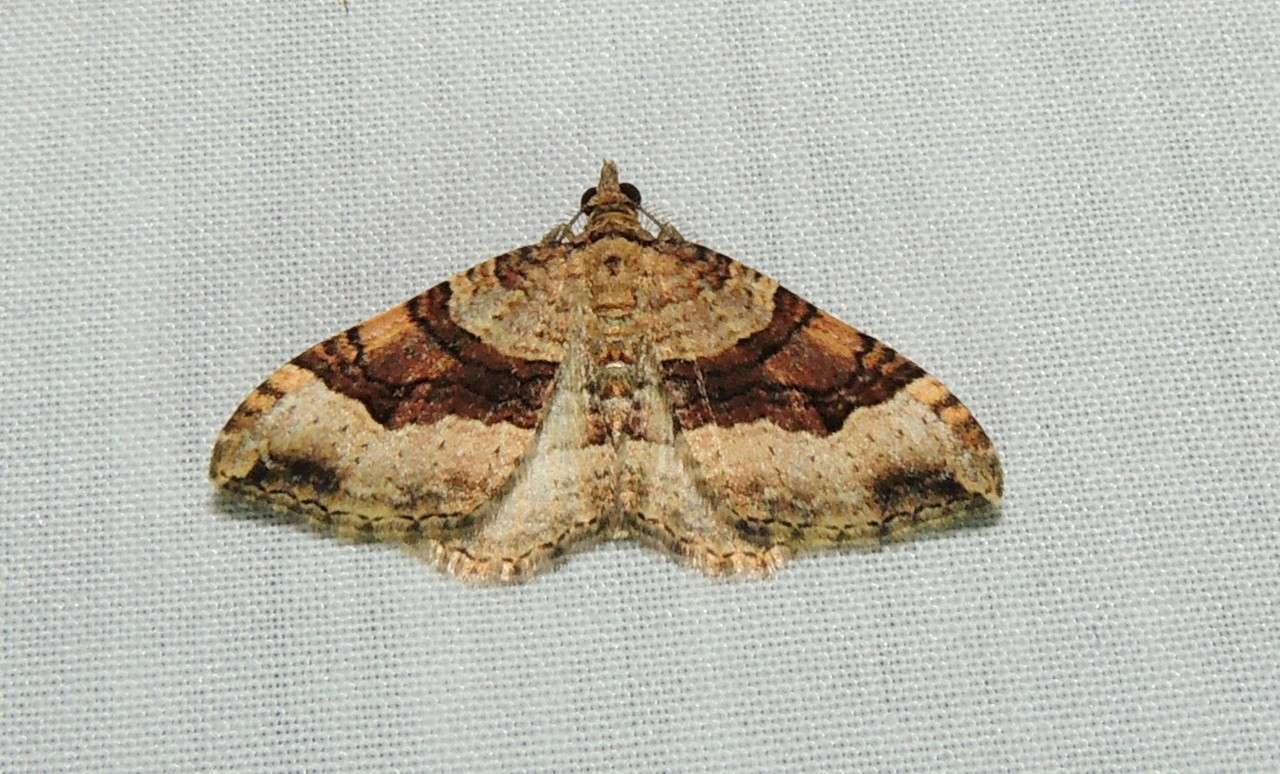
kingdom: Animalia
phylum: Arthropoda
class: Insecta
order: Lepidoptera
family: Geometridae
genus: Epyaxa
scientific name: Epyaxa subidaria
